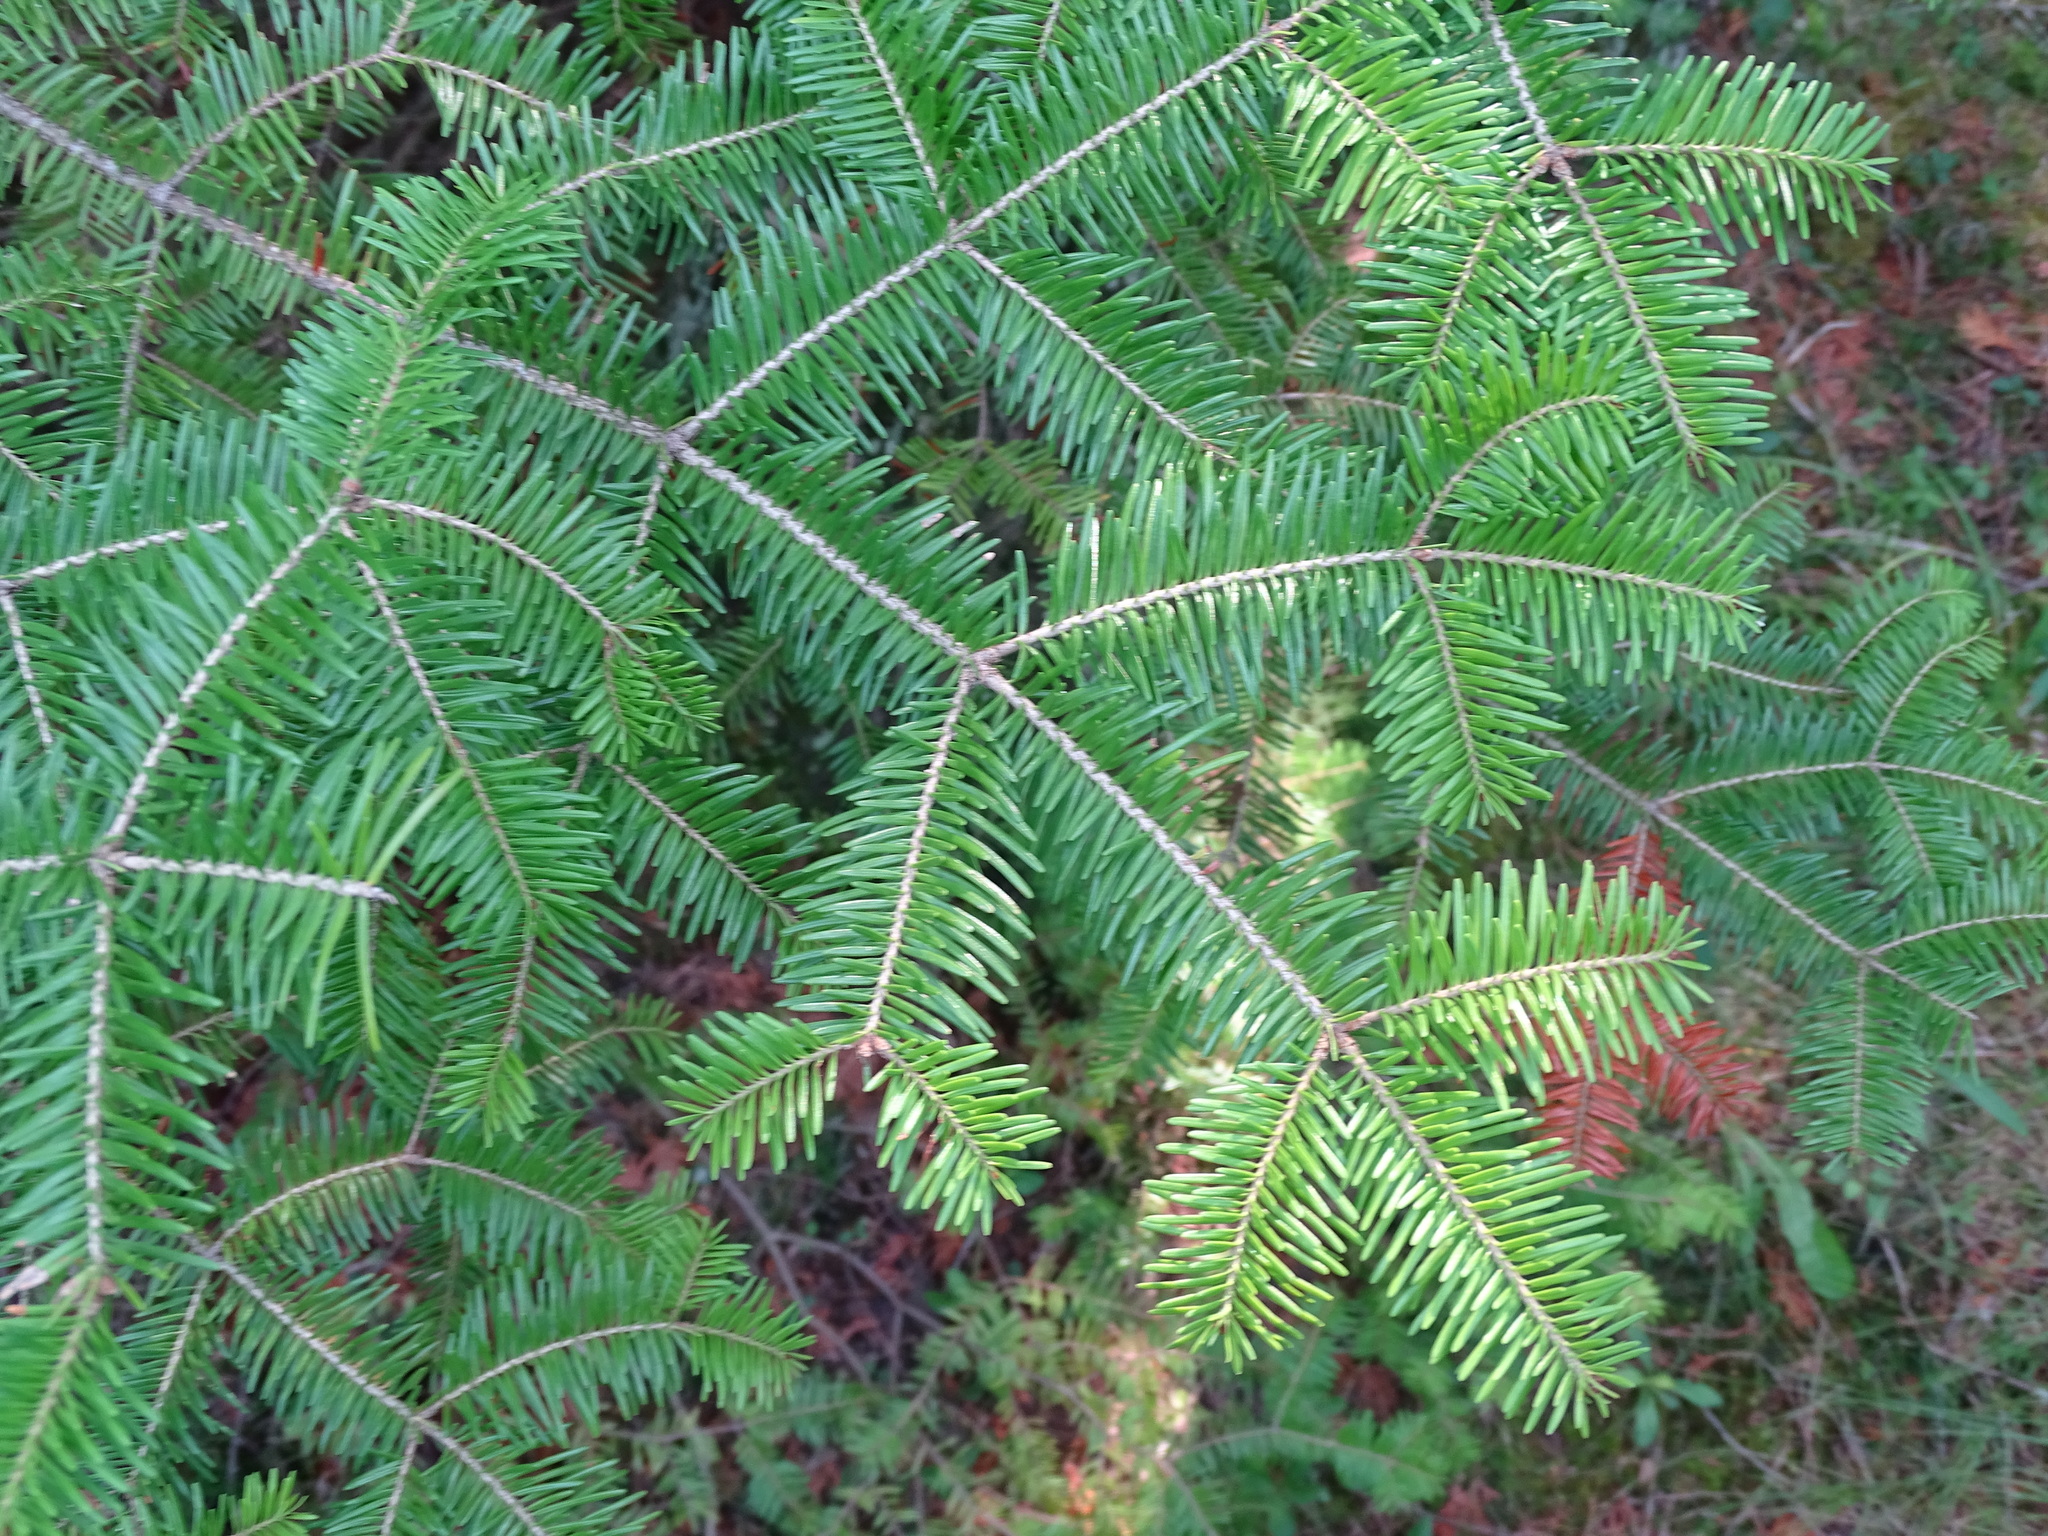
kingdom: Plantae
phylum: Tracheophyta
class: Pinopsida
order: Pinales
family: Pinaceae
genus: Abies
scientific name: Abies balsamea
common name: Balsam fir
